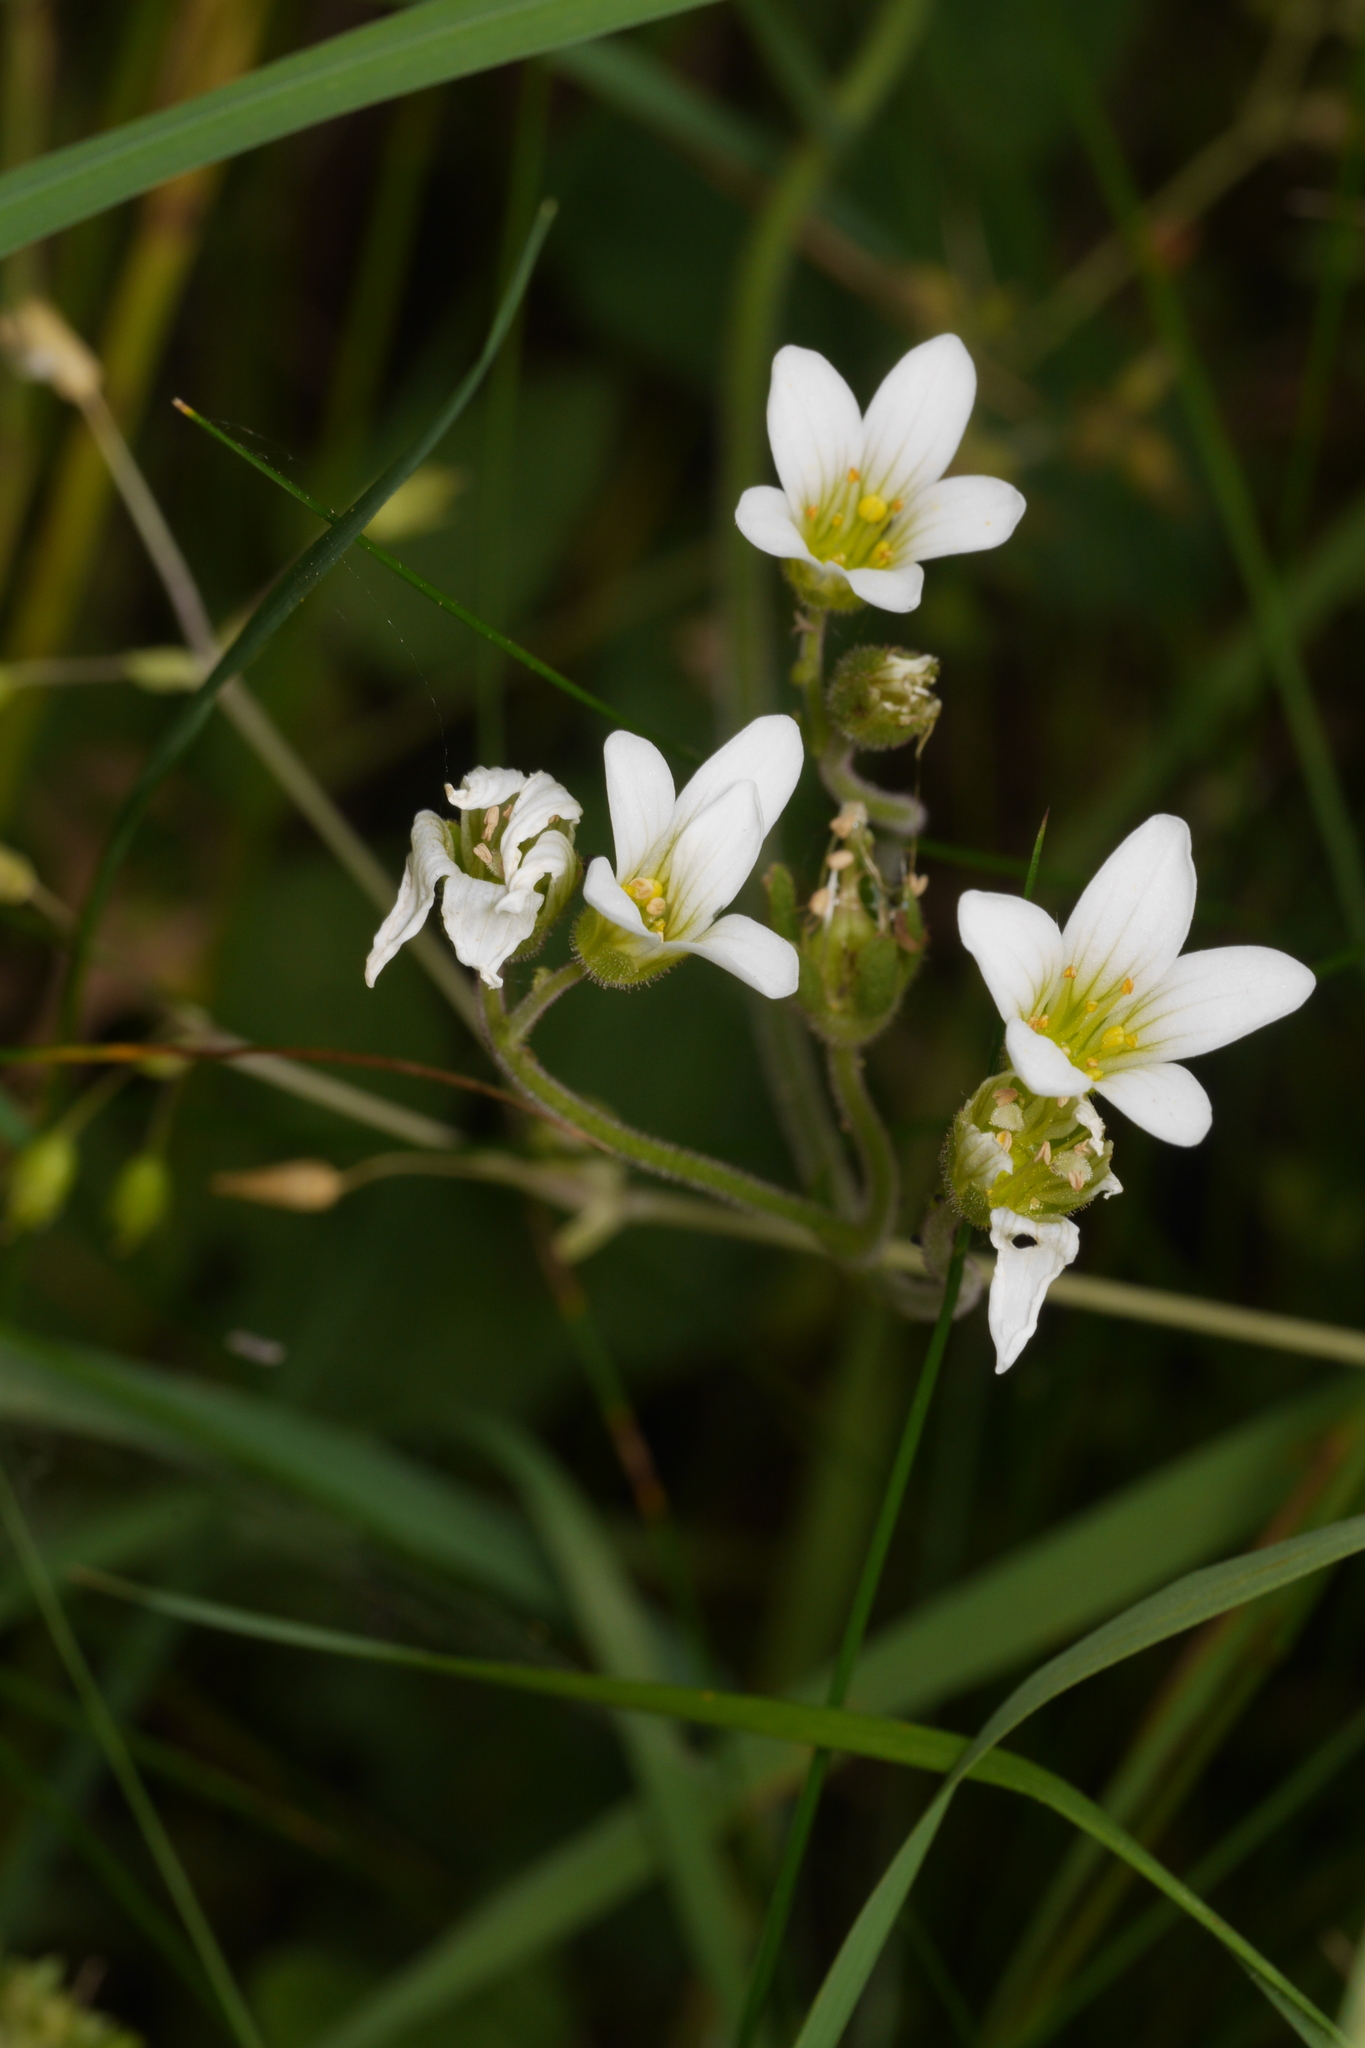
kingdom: Plantae
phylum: Tracheophyta
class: Magnoliopsida
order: Saxifragales
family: Saxifragaceae
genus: Saxifraga
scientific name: Saxifraga granulata
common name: Meadow saxifrage
